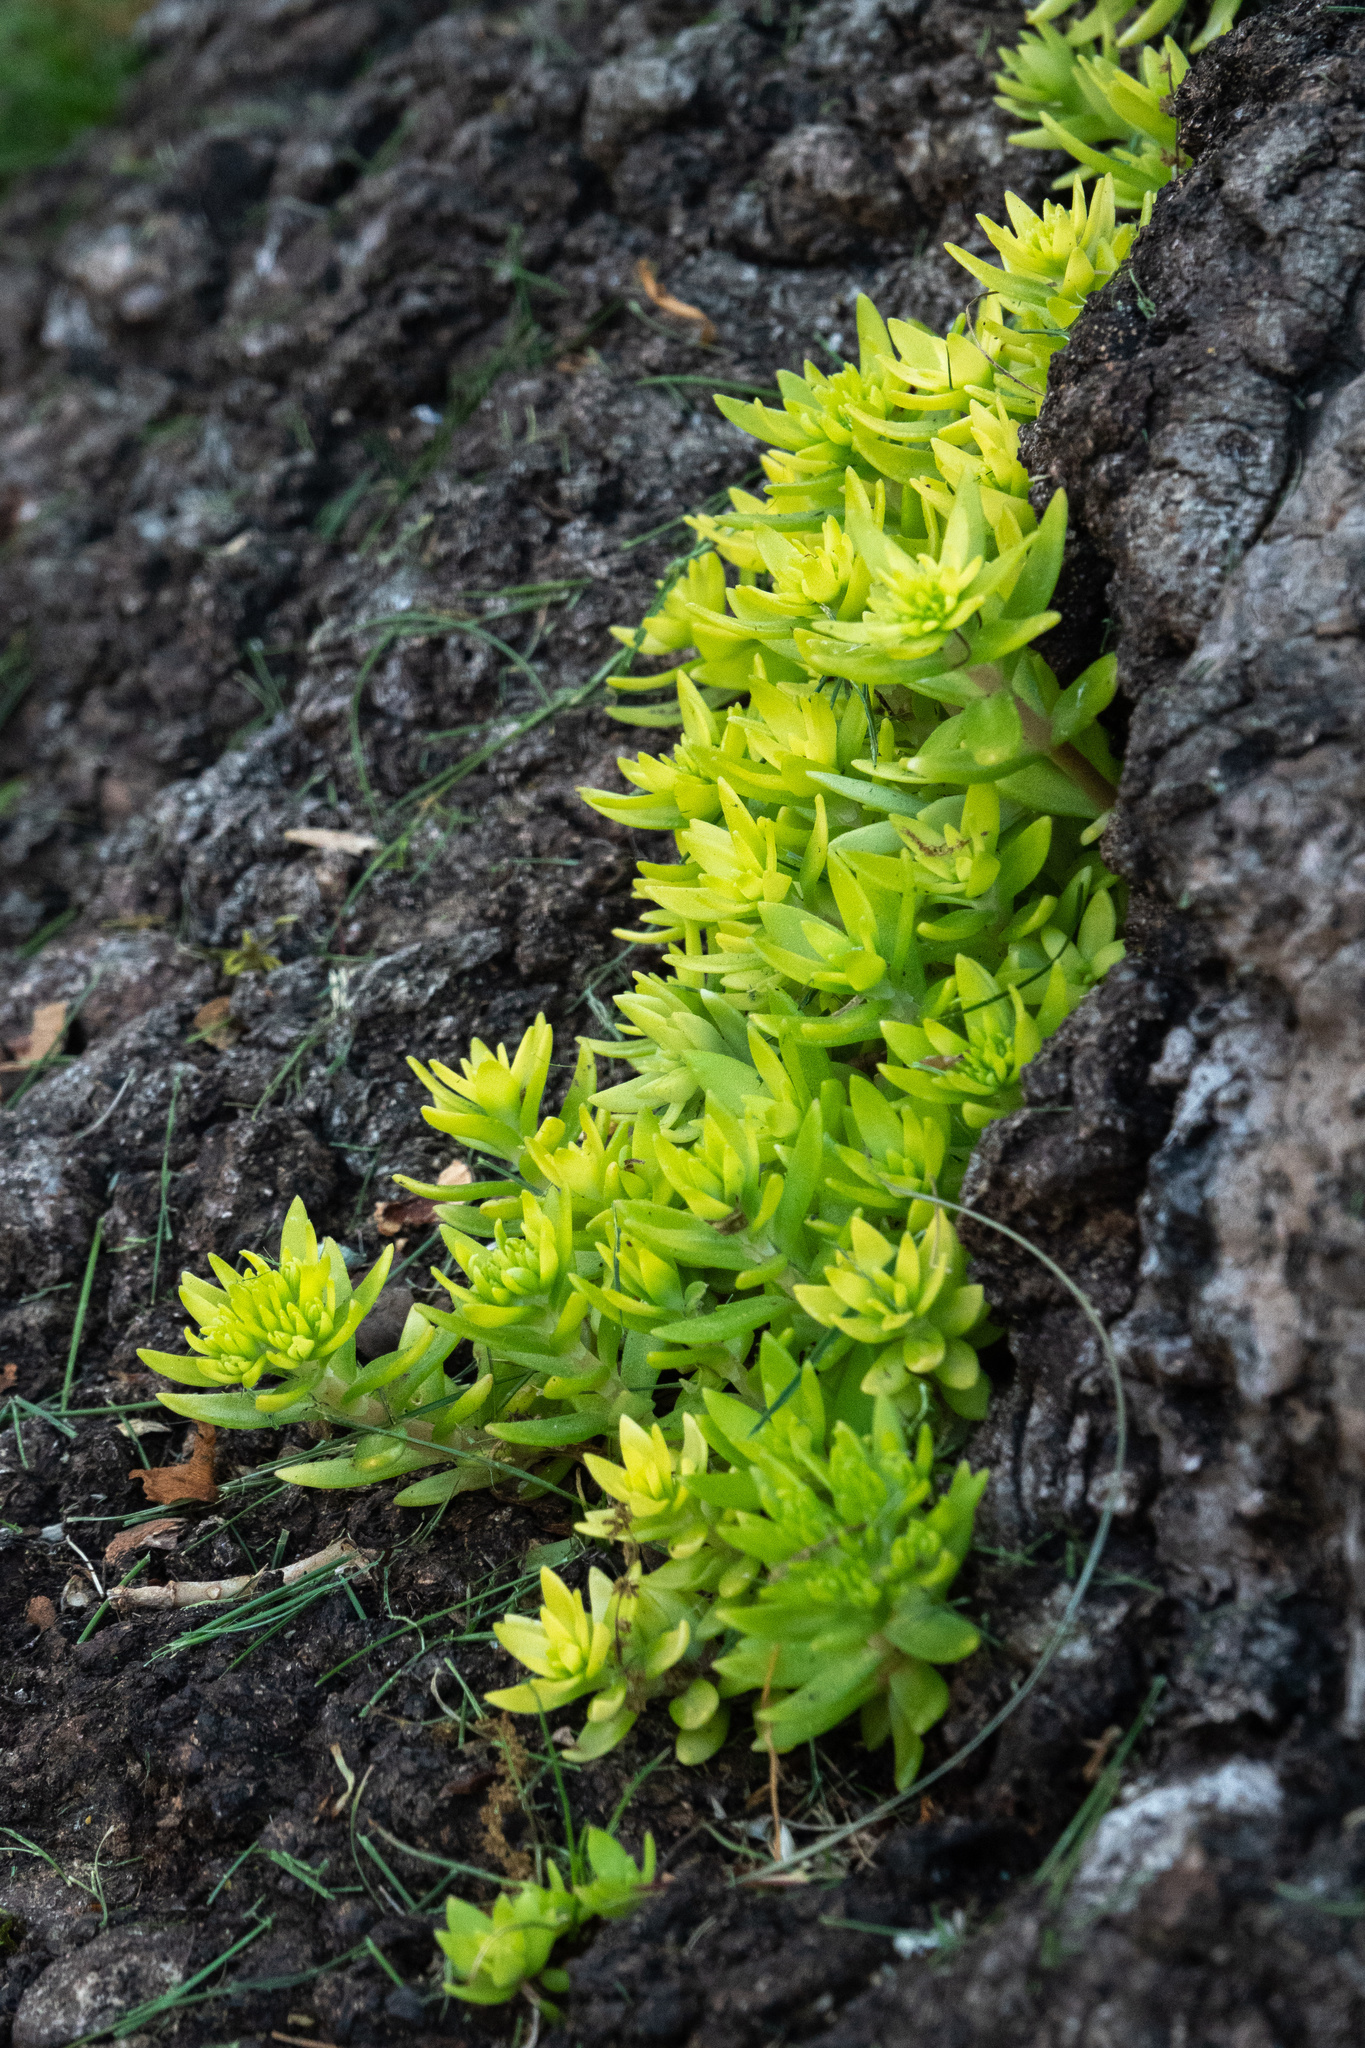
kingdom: Plantae
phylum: Tracheophyta
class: Magnoliopsida
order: Saxifragales
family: Crassulaceae
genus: Sedum
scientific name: Sedum sarmentosum
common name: Stringy stonecrop
